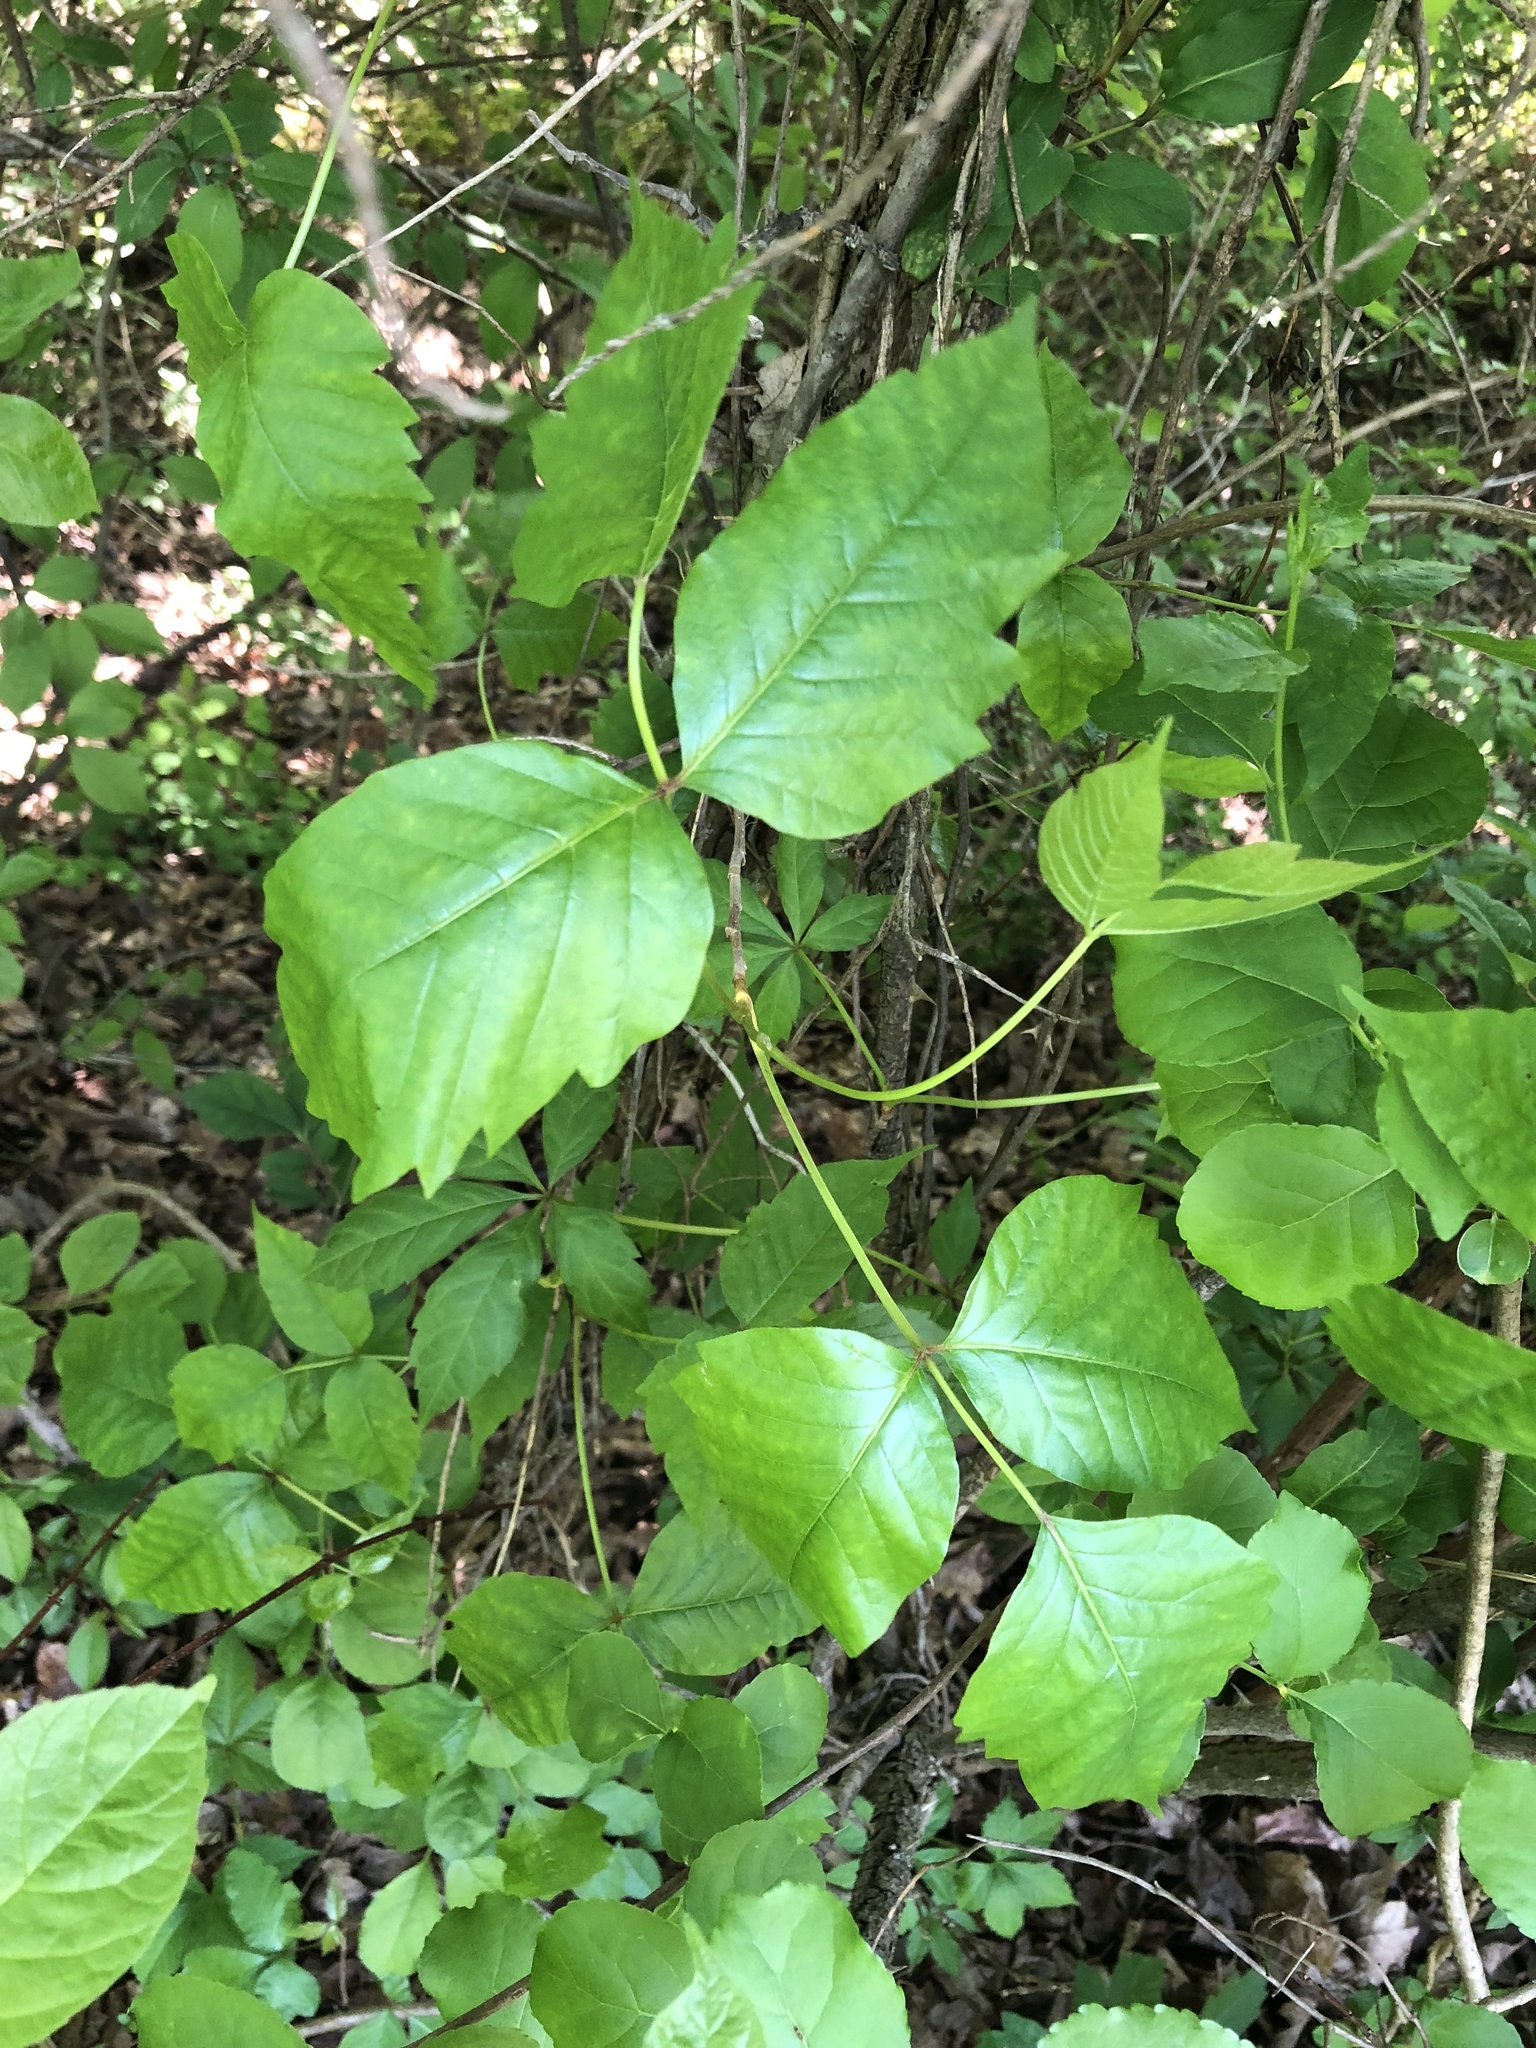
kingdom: Plantae
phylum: Tracheophyta
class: Magnoliopsida
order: Sapindales
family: Anacardiaceae
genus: Toxicodendron
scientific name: Toxicodendron radicans
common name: Poison ivy
